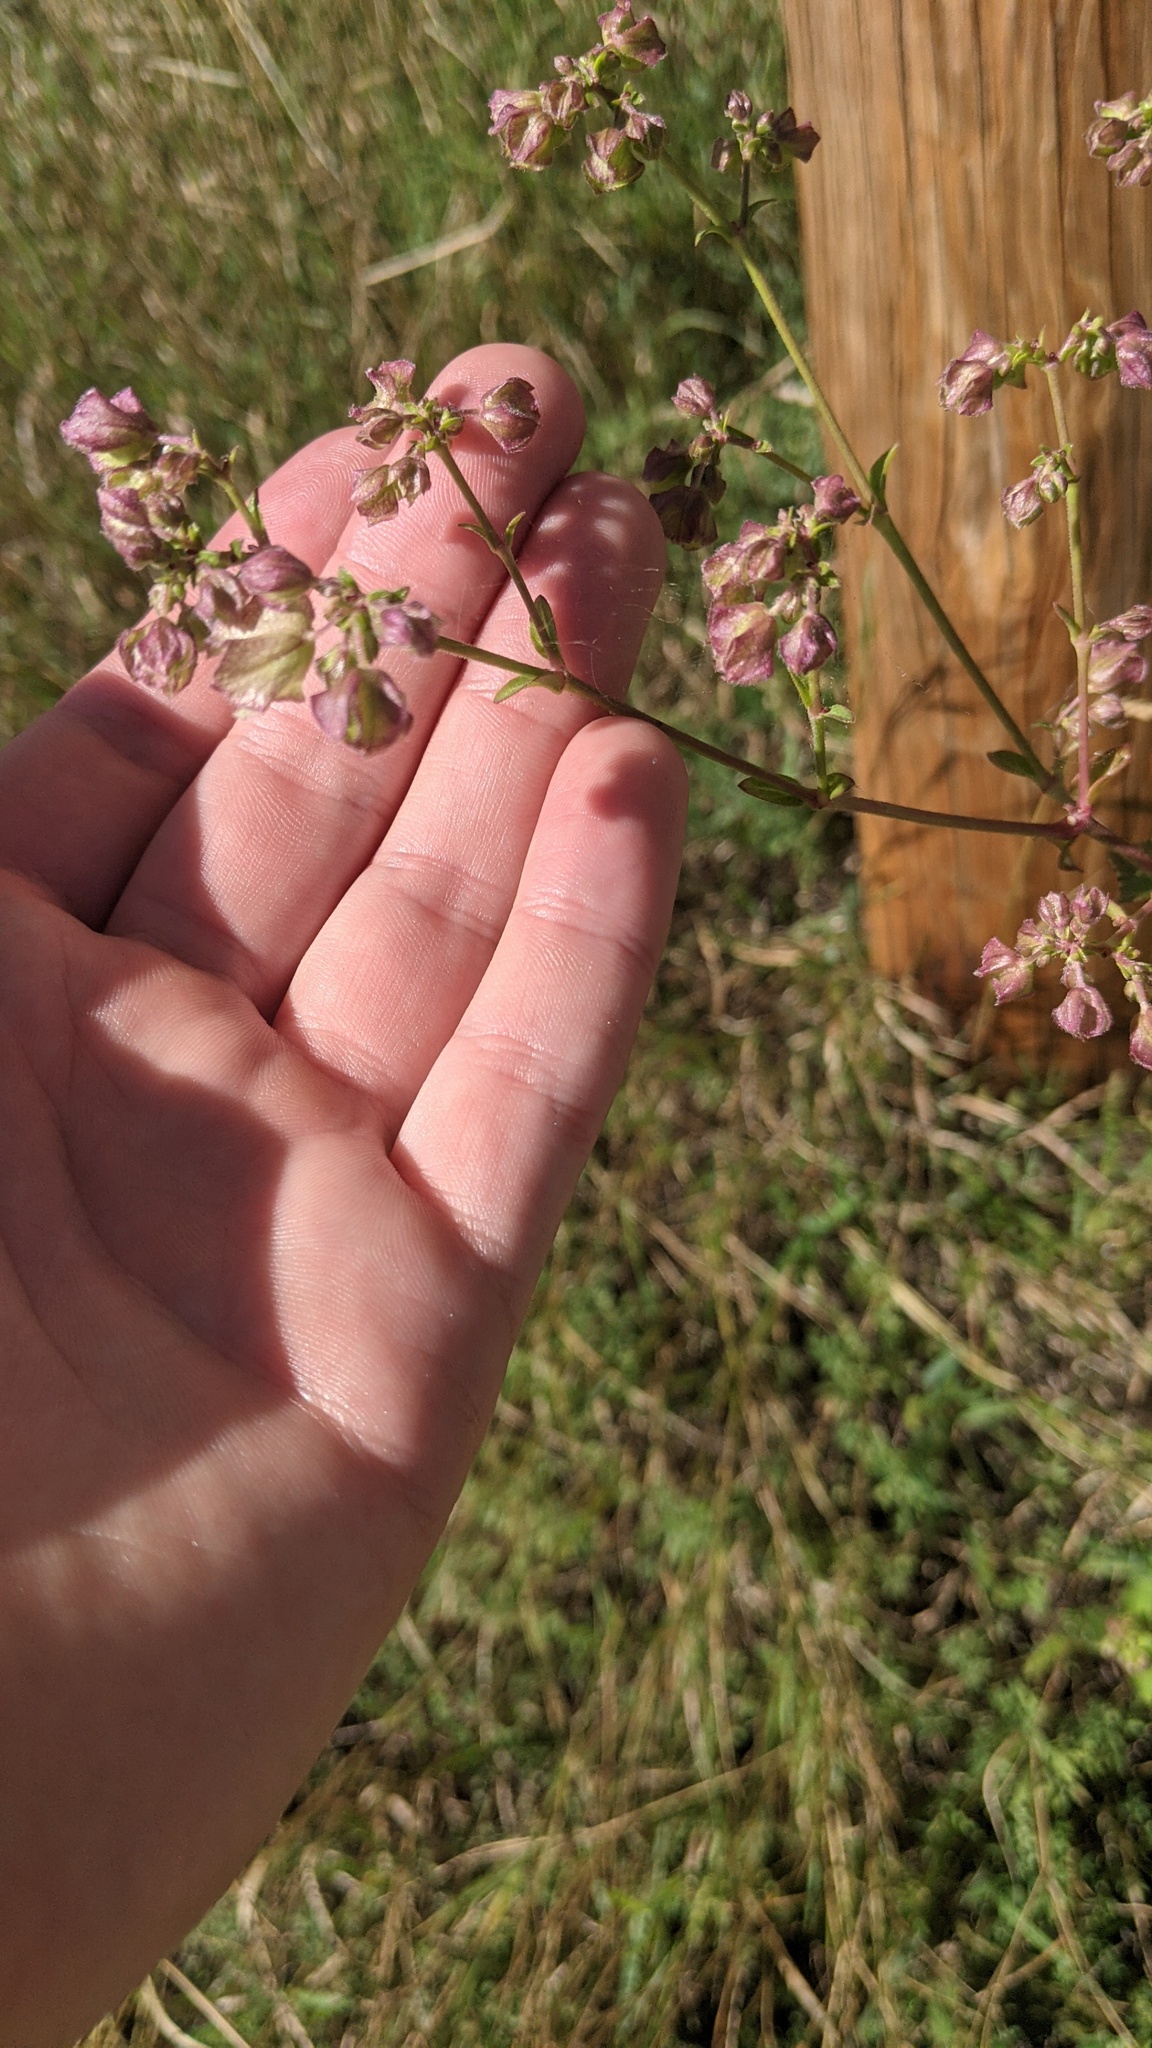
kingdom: Plantae
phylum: Tracheophyta
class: Magnoliopsida
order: Caryophyllales
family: Nyctaginaceae
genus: Mirabilis
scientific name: Mirabilis nyctaginea
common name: Umbrella wort
